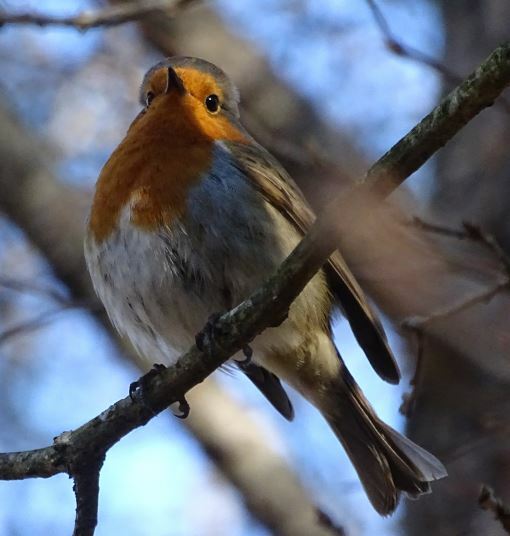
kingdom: Animalia
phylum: Chordata
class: Aves
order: Passeriformes
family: Muscicapidae
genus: Erithacus
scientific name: Erithacus rubecula
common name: European robin
